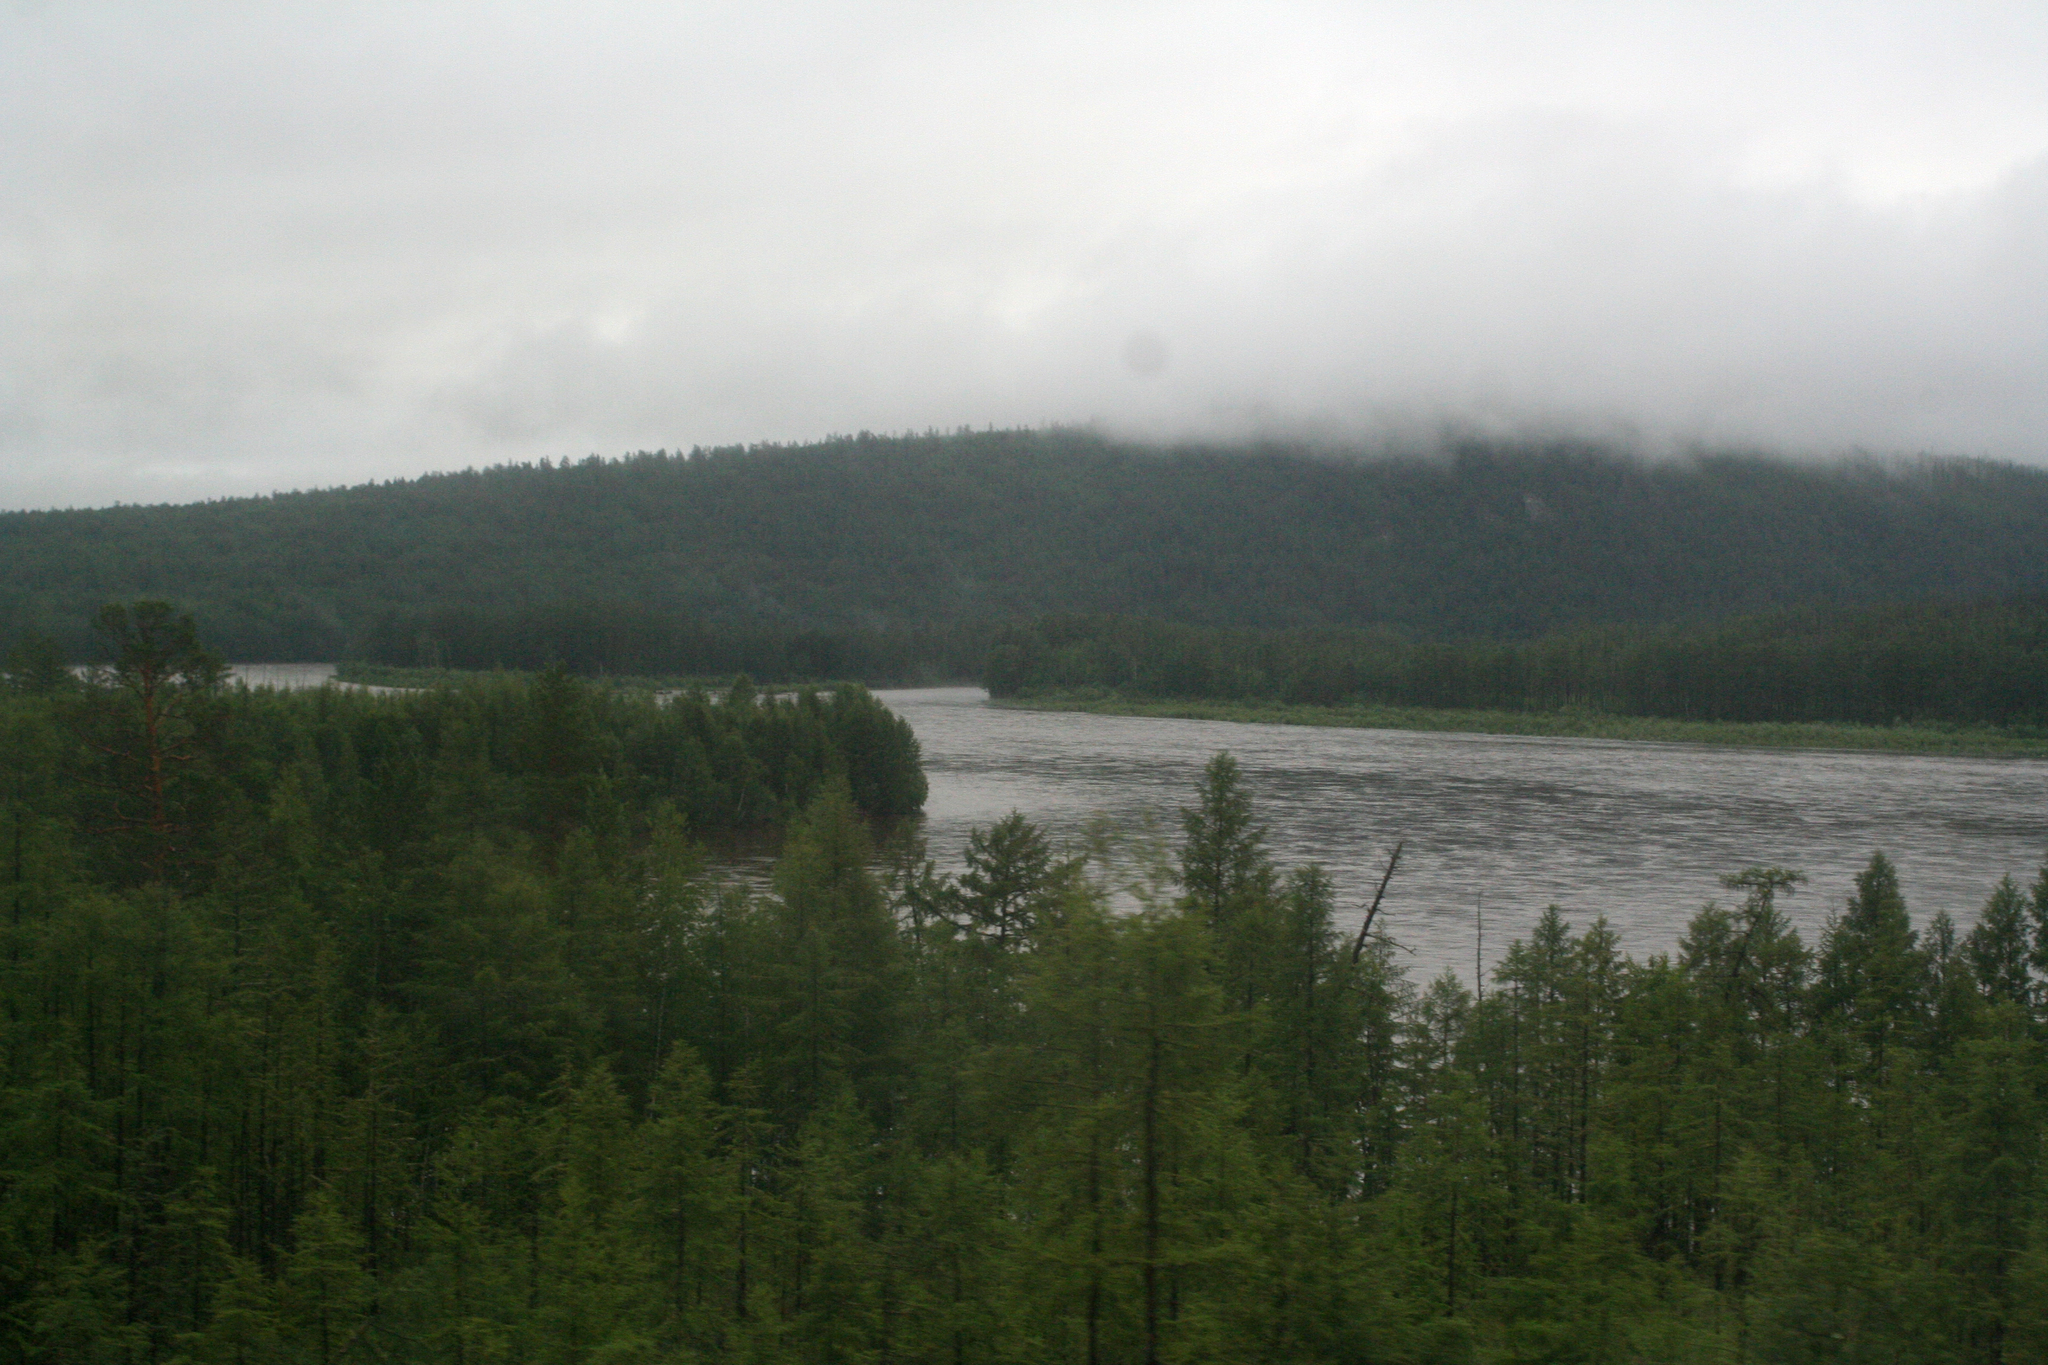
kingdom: Plantae
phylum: Tracheophyta
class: Pinopsida
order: Pinales
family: Pinaceae
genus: Larix
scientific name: Larix gmelinii
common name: Dahurian larch
